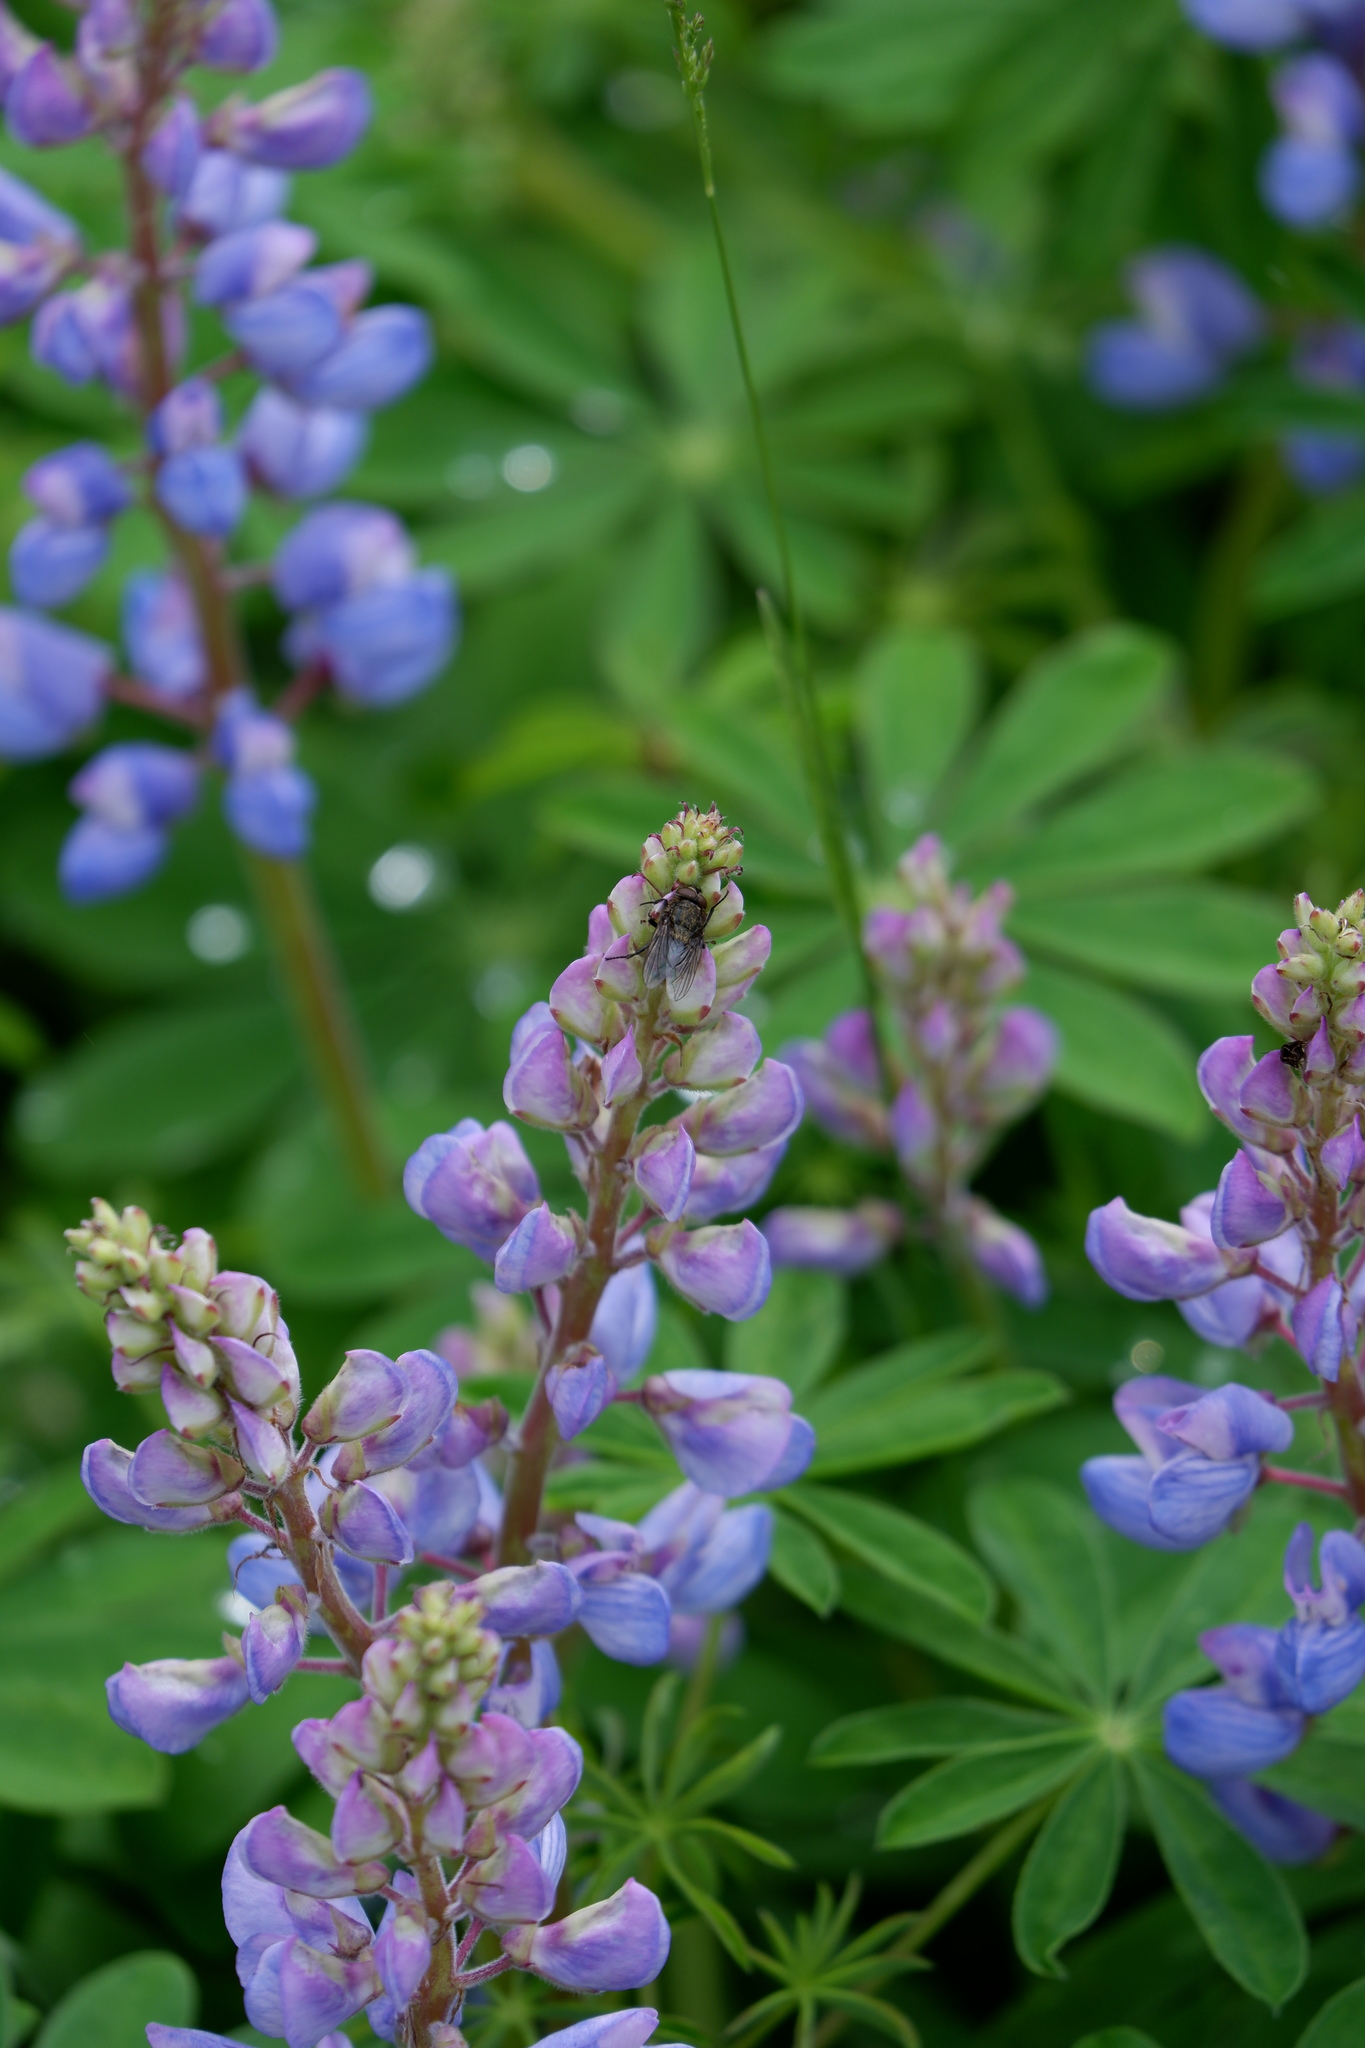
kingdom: Animalia
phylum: Arthropoda
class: Insecta
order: Diptera
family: Polleniidae
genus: Pollenia
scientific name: Pollenia
